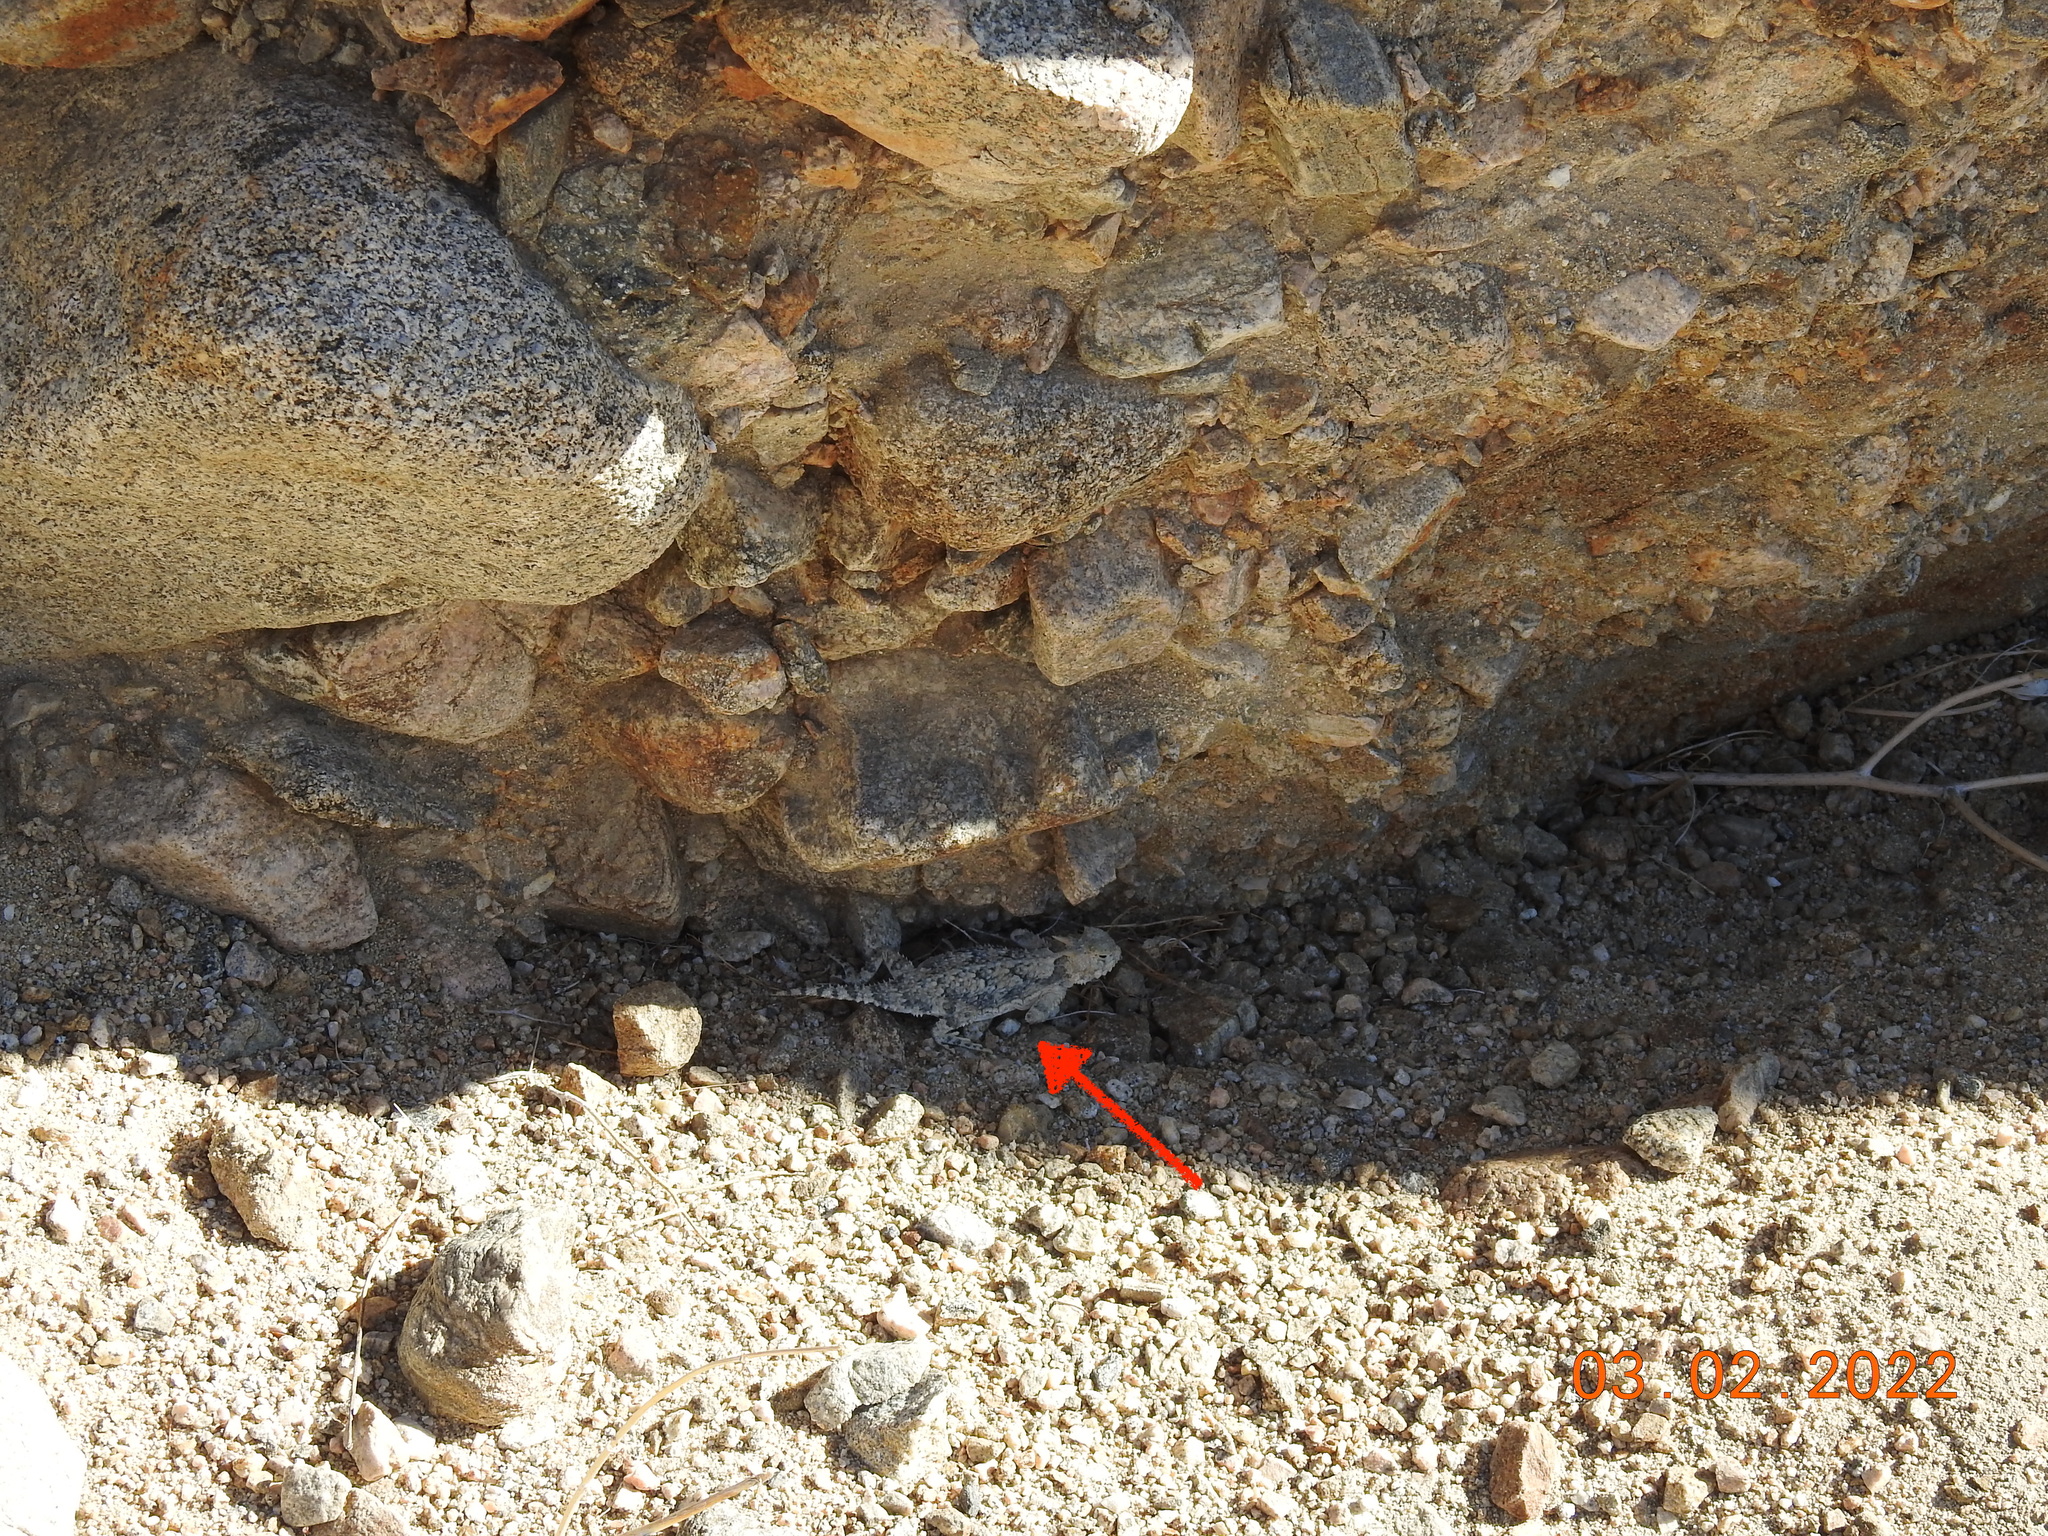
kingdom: Animalia
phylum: Chordata
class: Squamata
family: Phrynosomatidae
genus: Phrynosoma
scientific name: Phrynosoma platyrhinos
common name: Desert horned lizard
